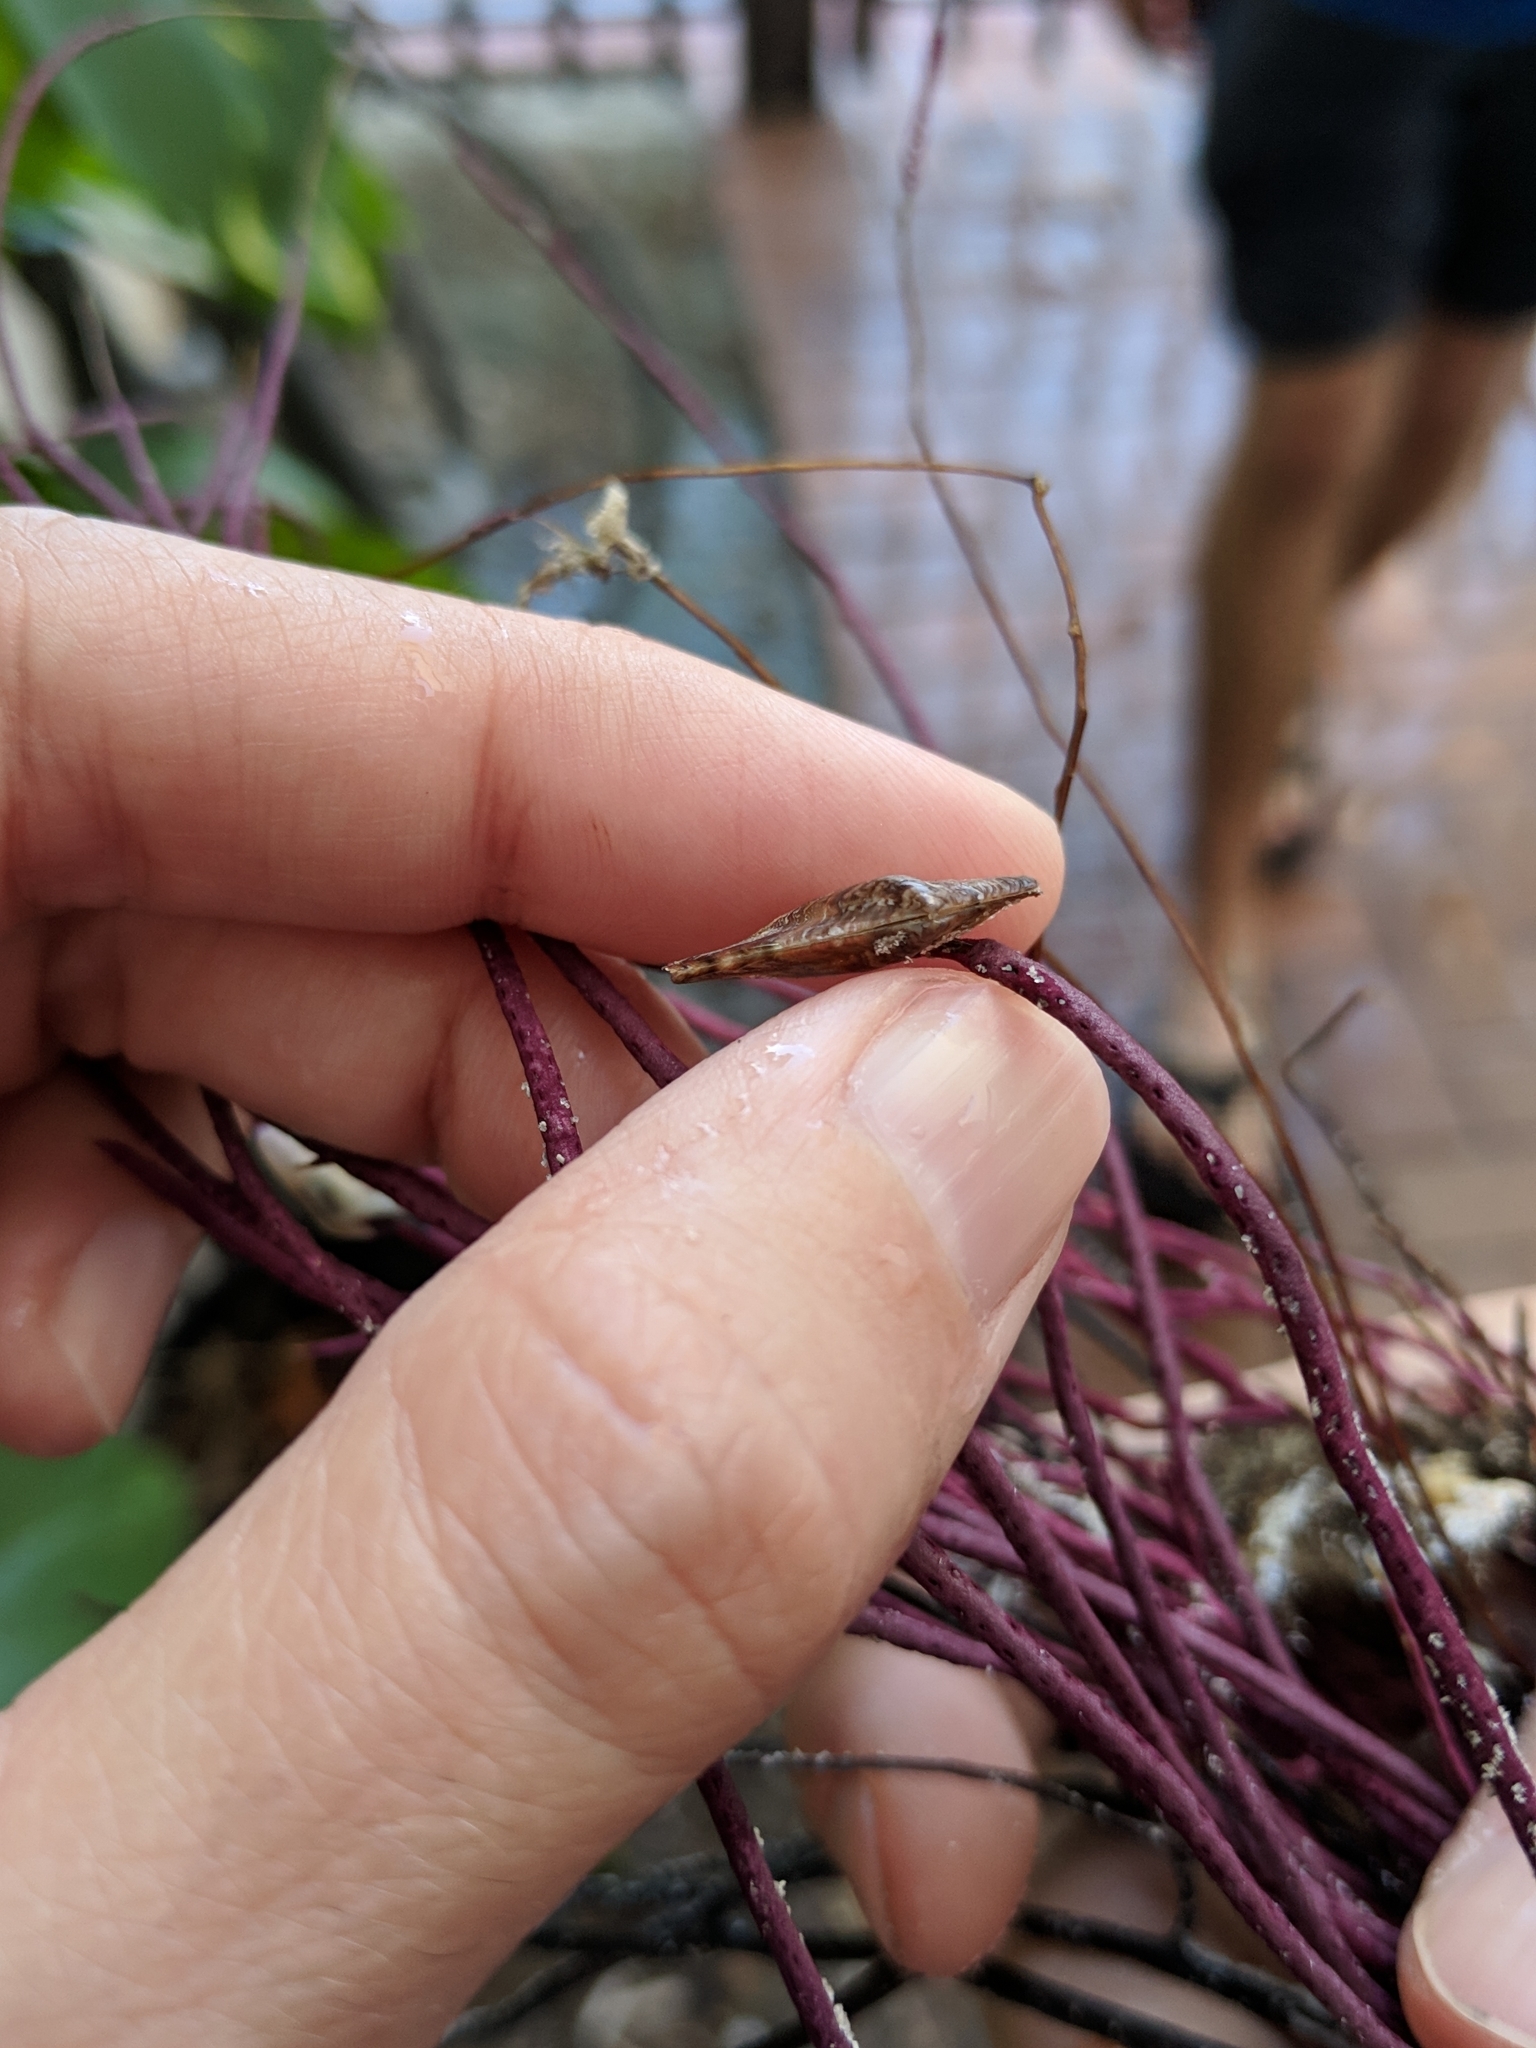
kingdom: Animalia
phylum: Mollusca
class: Bivalvia
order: Ostreida
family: Pteriidae
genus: Pteria
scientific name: Pteria colymbus
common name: Atlantic wing-oyster
